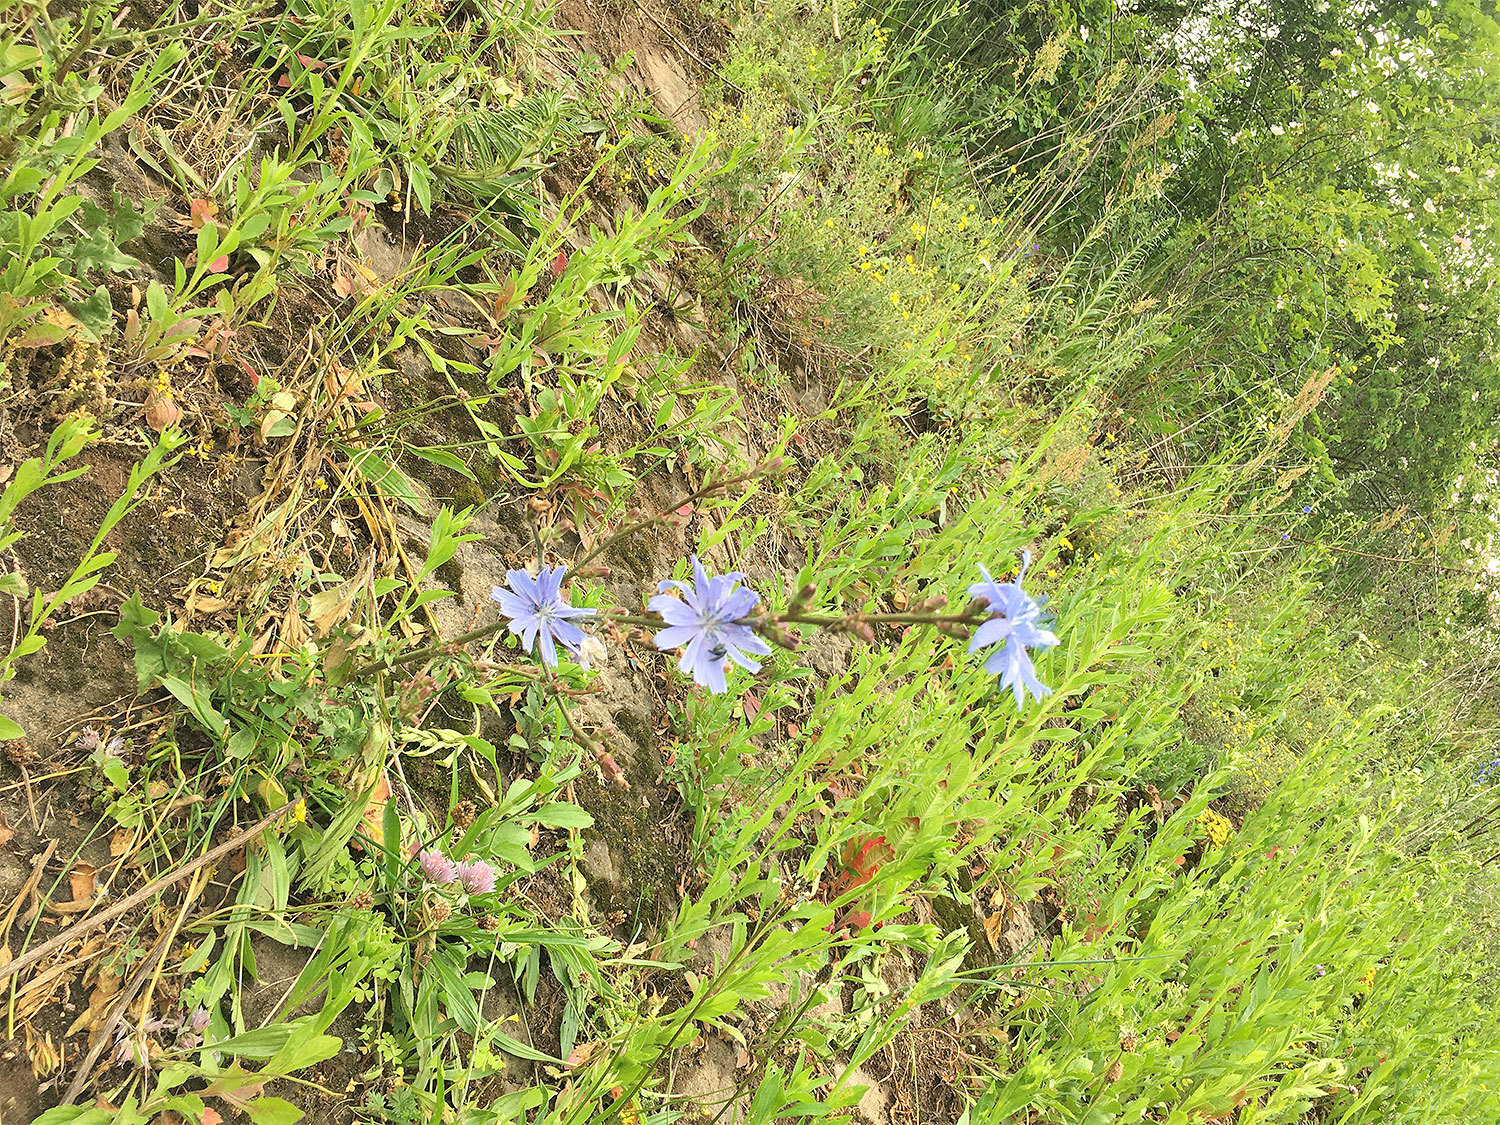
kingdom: Plantae
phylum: Tracheophyta
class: Magnoliopsida
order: Asterales
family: Asteraceae
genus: Cichorium
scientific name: Cichorium intybus
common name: Chicory
